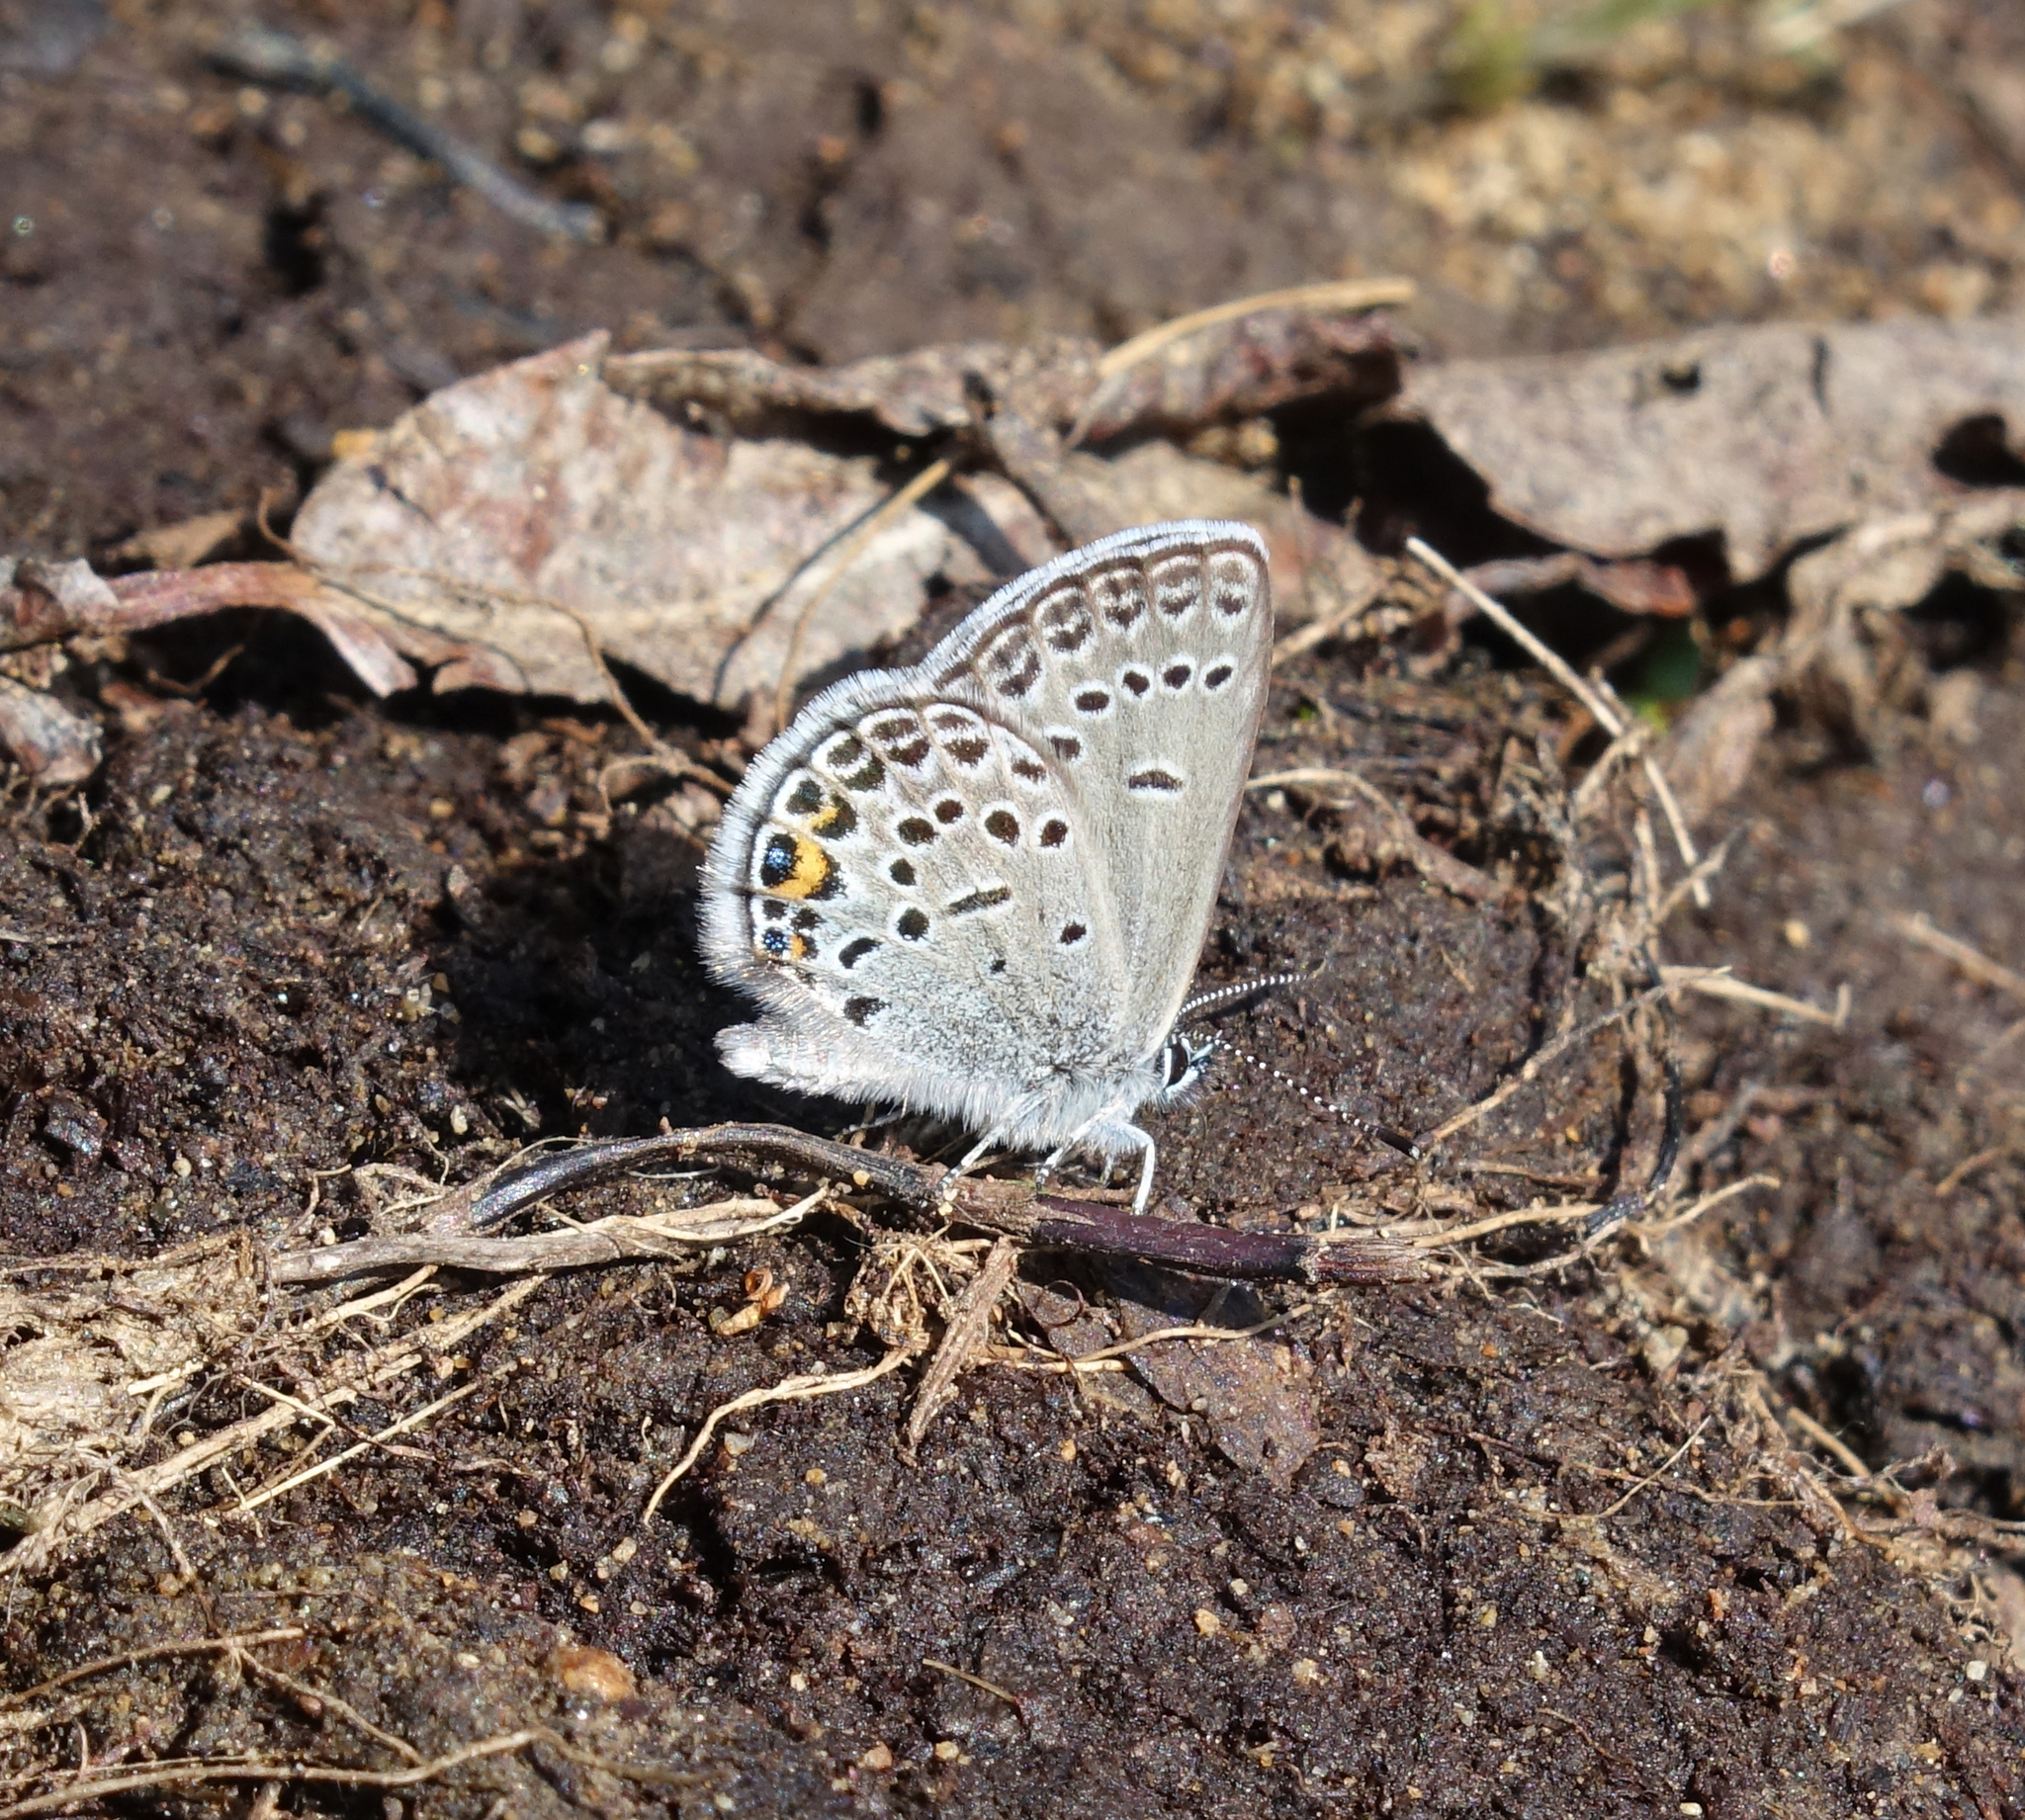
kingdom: Animalia
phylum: Arthropoda
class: Insecta
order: Lepidoptera
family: Lycaenidae
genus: Vacciniina
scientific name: Vacciniina optilete
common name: Cranberry blue
